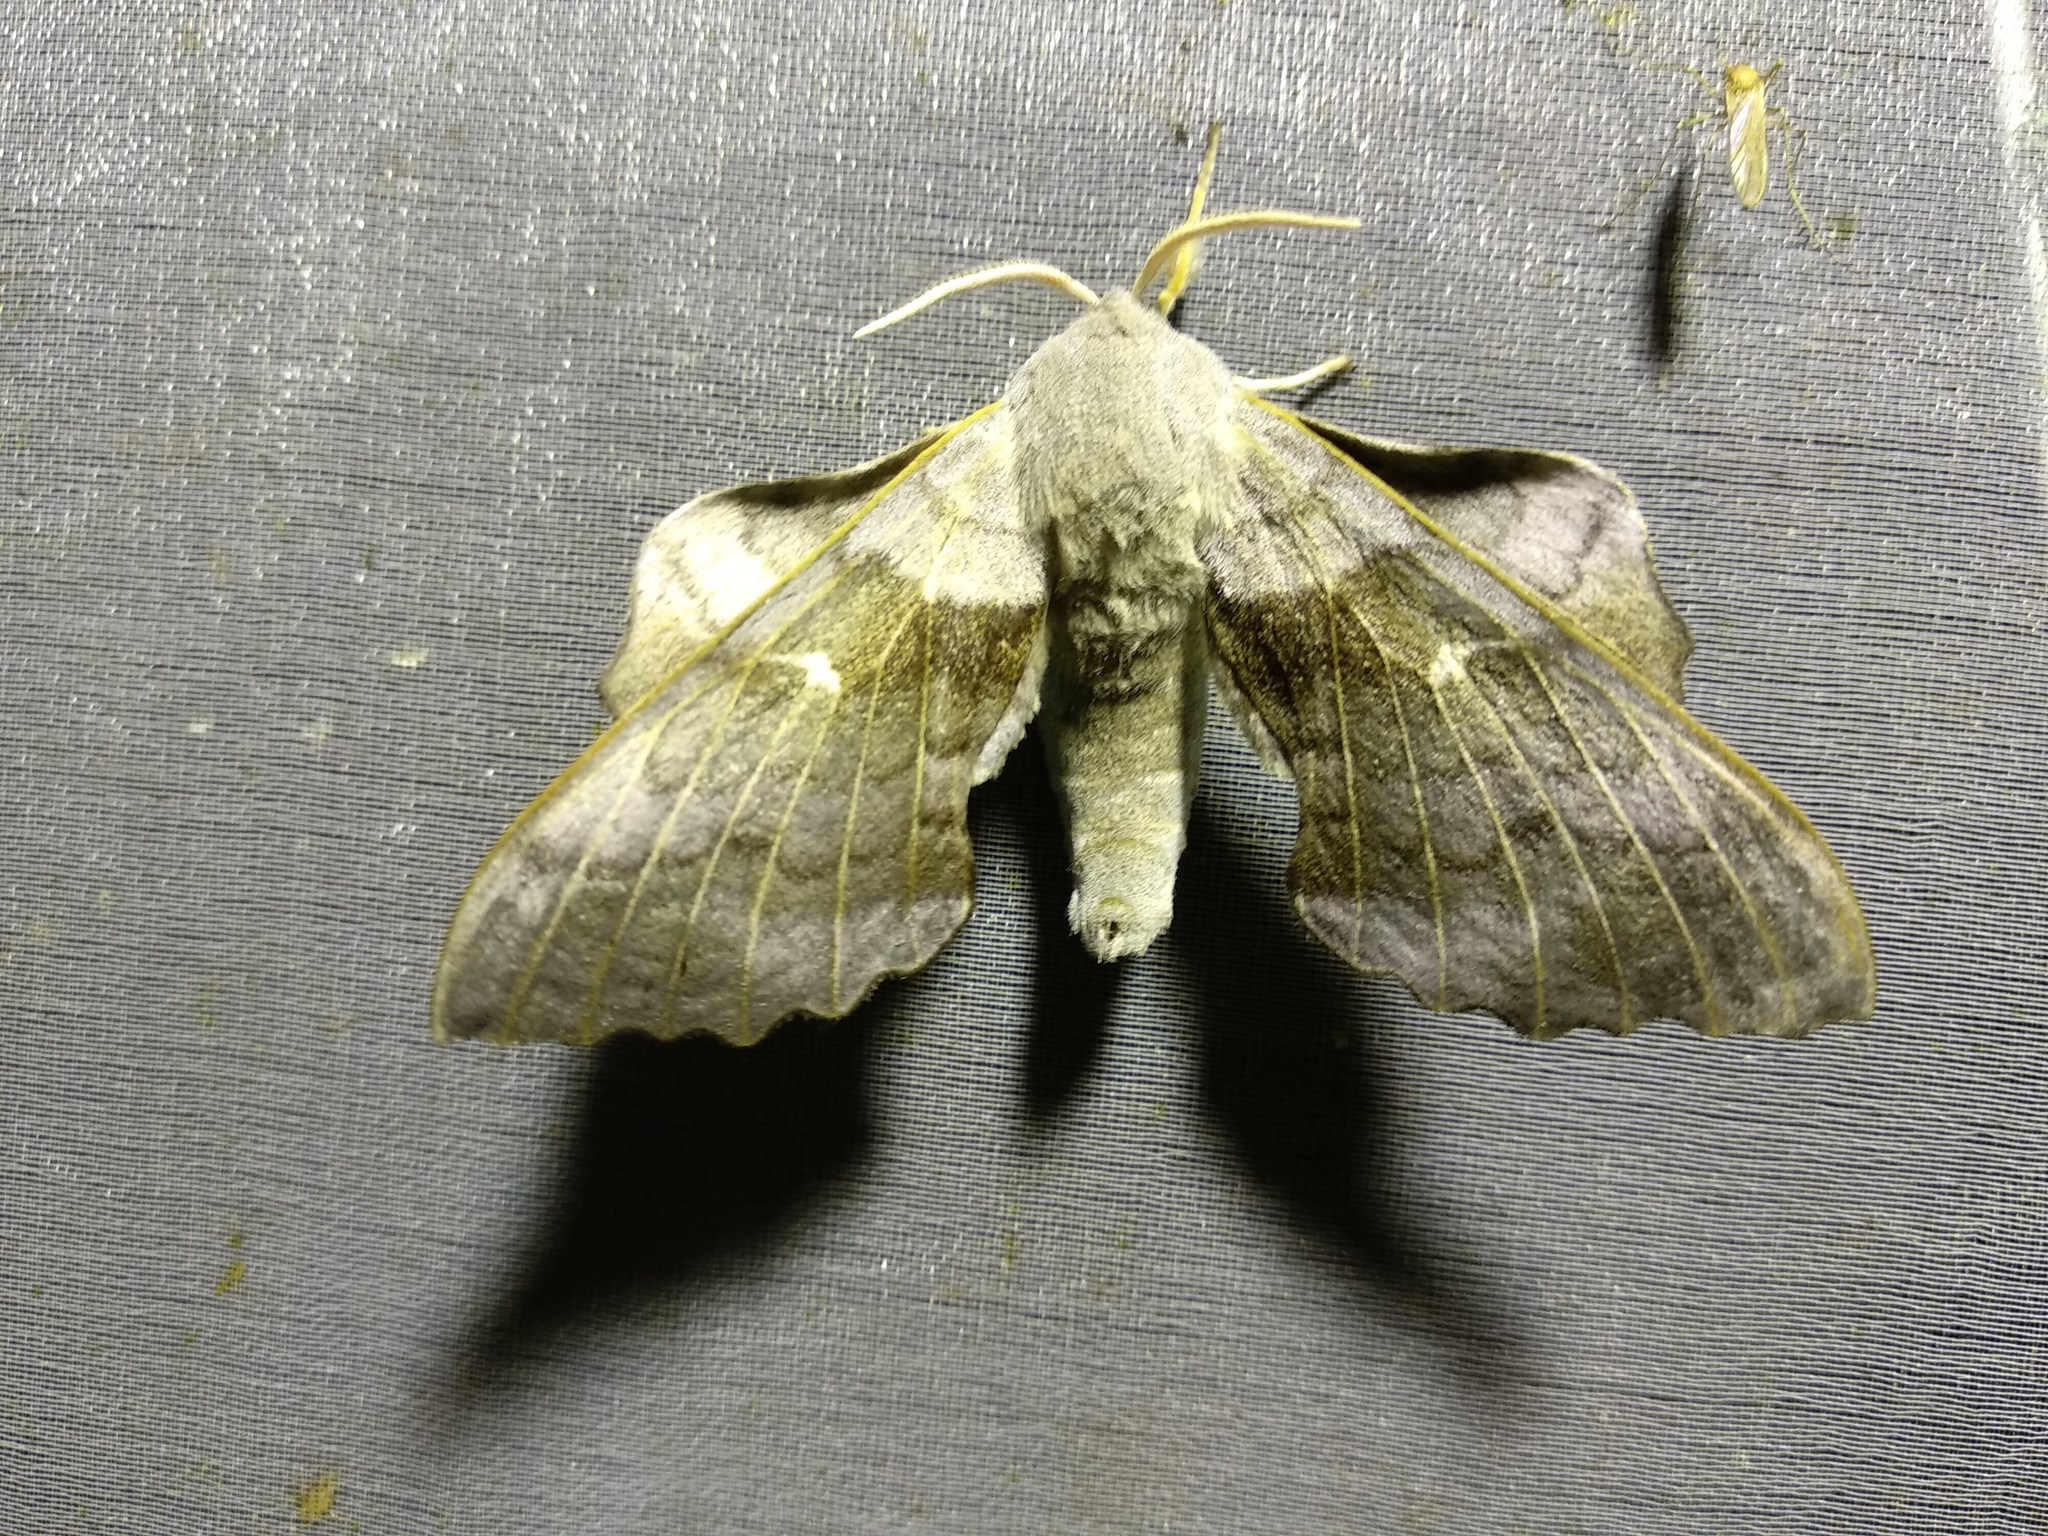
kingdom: Animalia
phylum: Arthropoda
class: Insecta
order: Lepidoptera
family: Sphingidae
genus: Laothoe
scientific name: Laothoe populi
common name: Poplar hawk-moth
